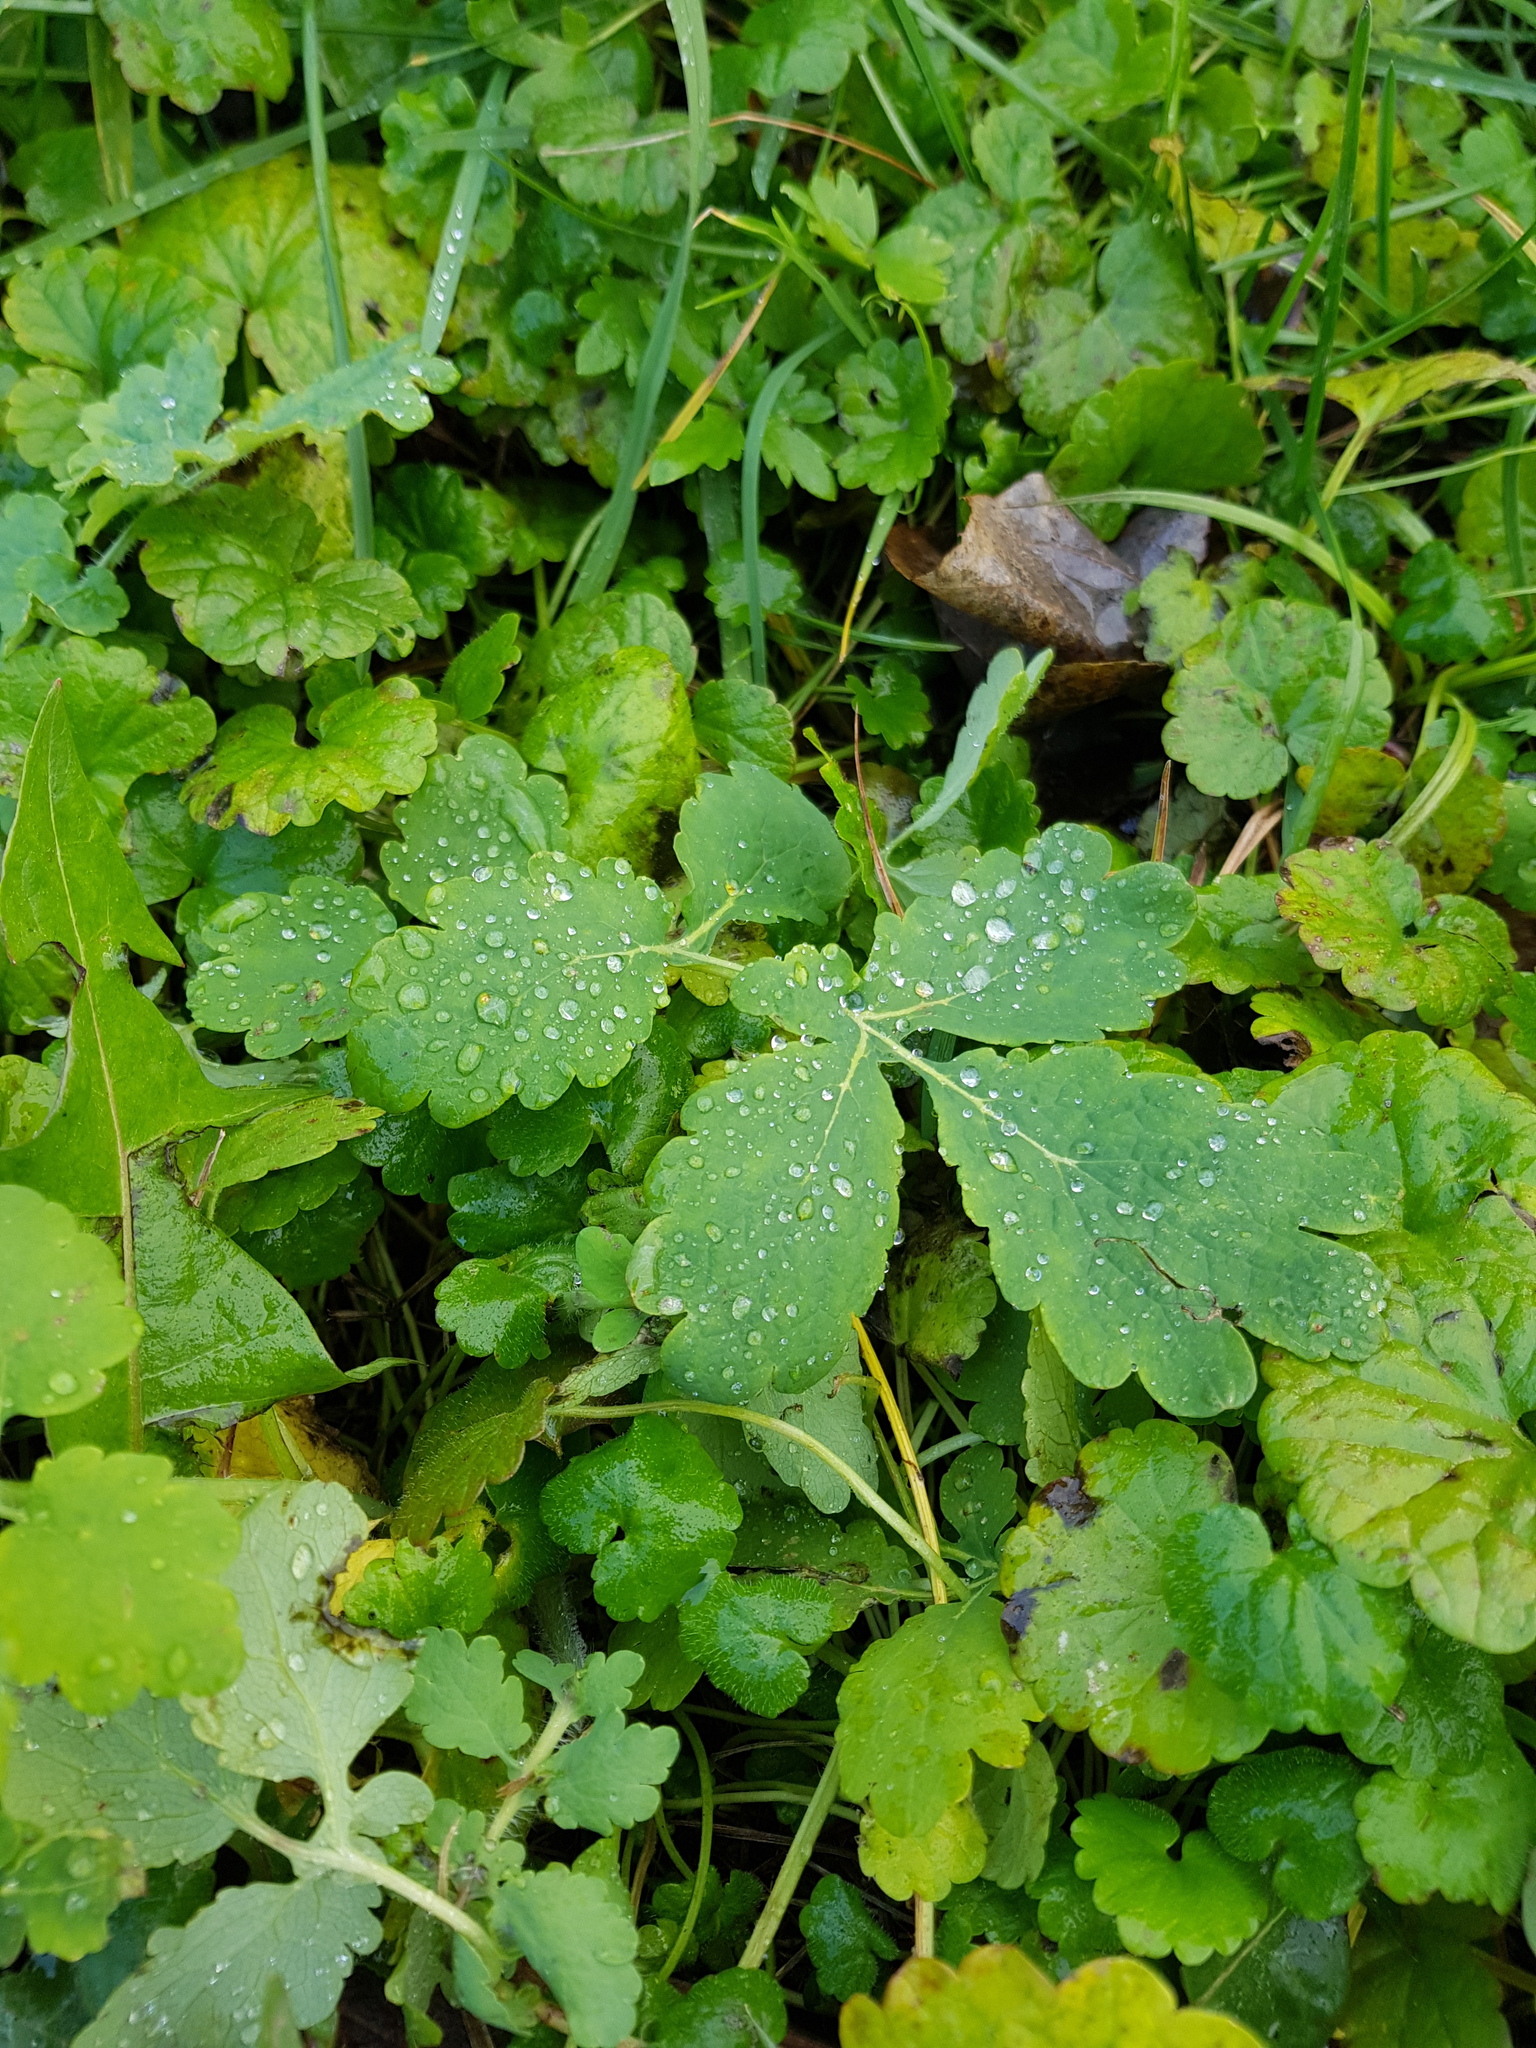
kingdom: Plantae
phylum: Tracheophyta
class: Magnoliopsida
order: Ranunculales
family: Papaveraceae
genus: Chelidonium
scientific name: Chelidonium majus
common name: Greater celandine
